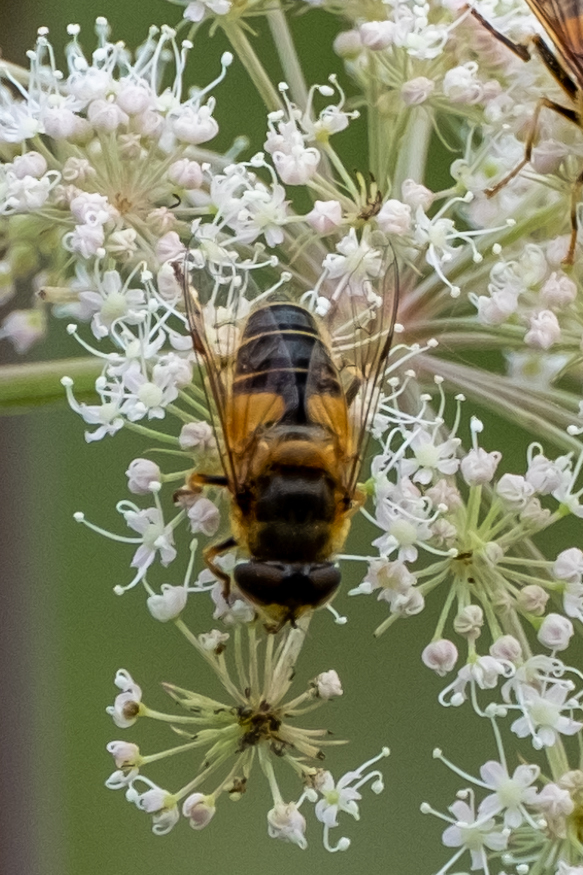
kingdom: Animalia
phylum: Arthropoda
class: Insecta
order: Diptera
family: Syrphidae
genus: Eristalis
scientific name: Eristalis
